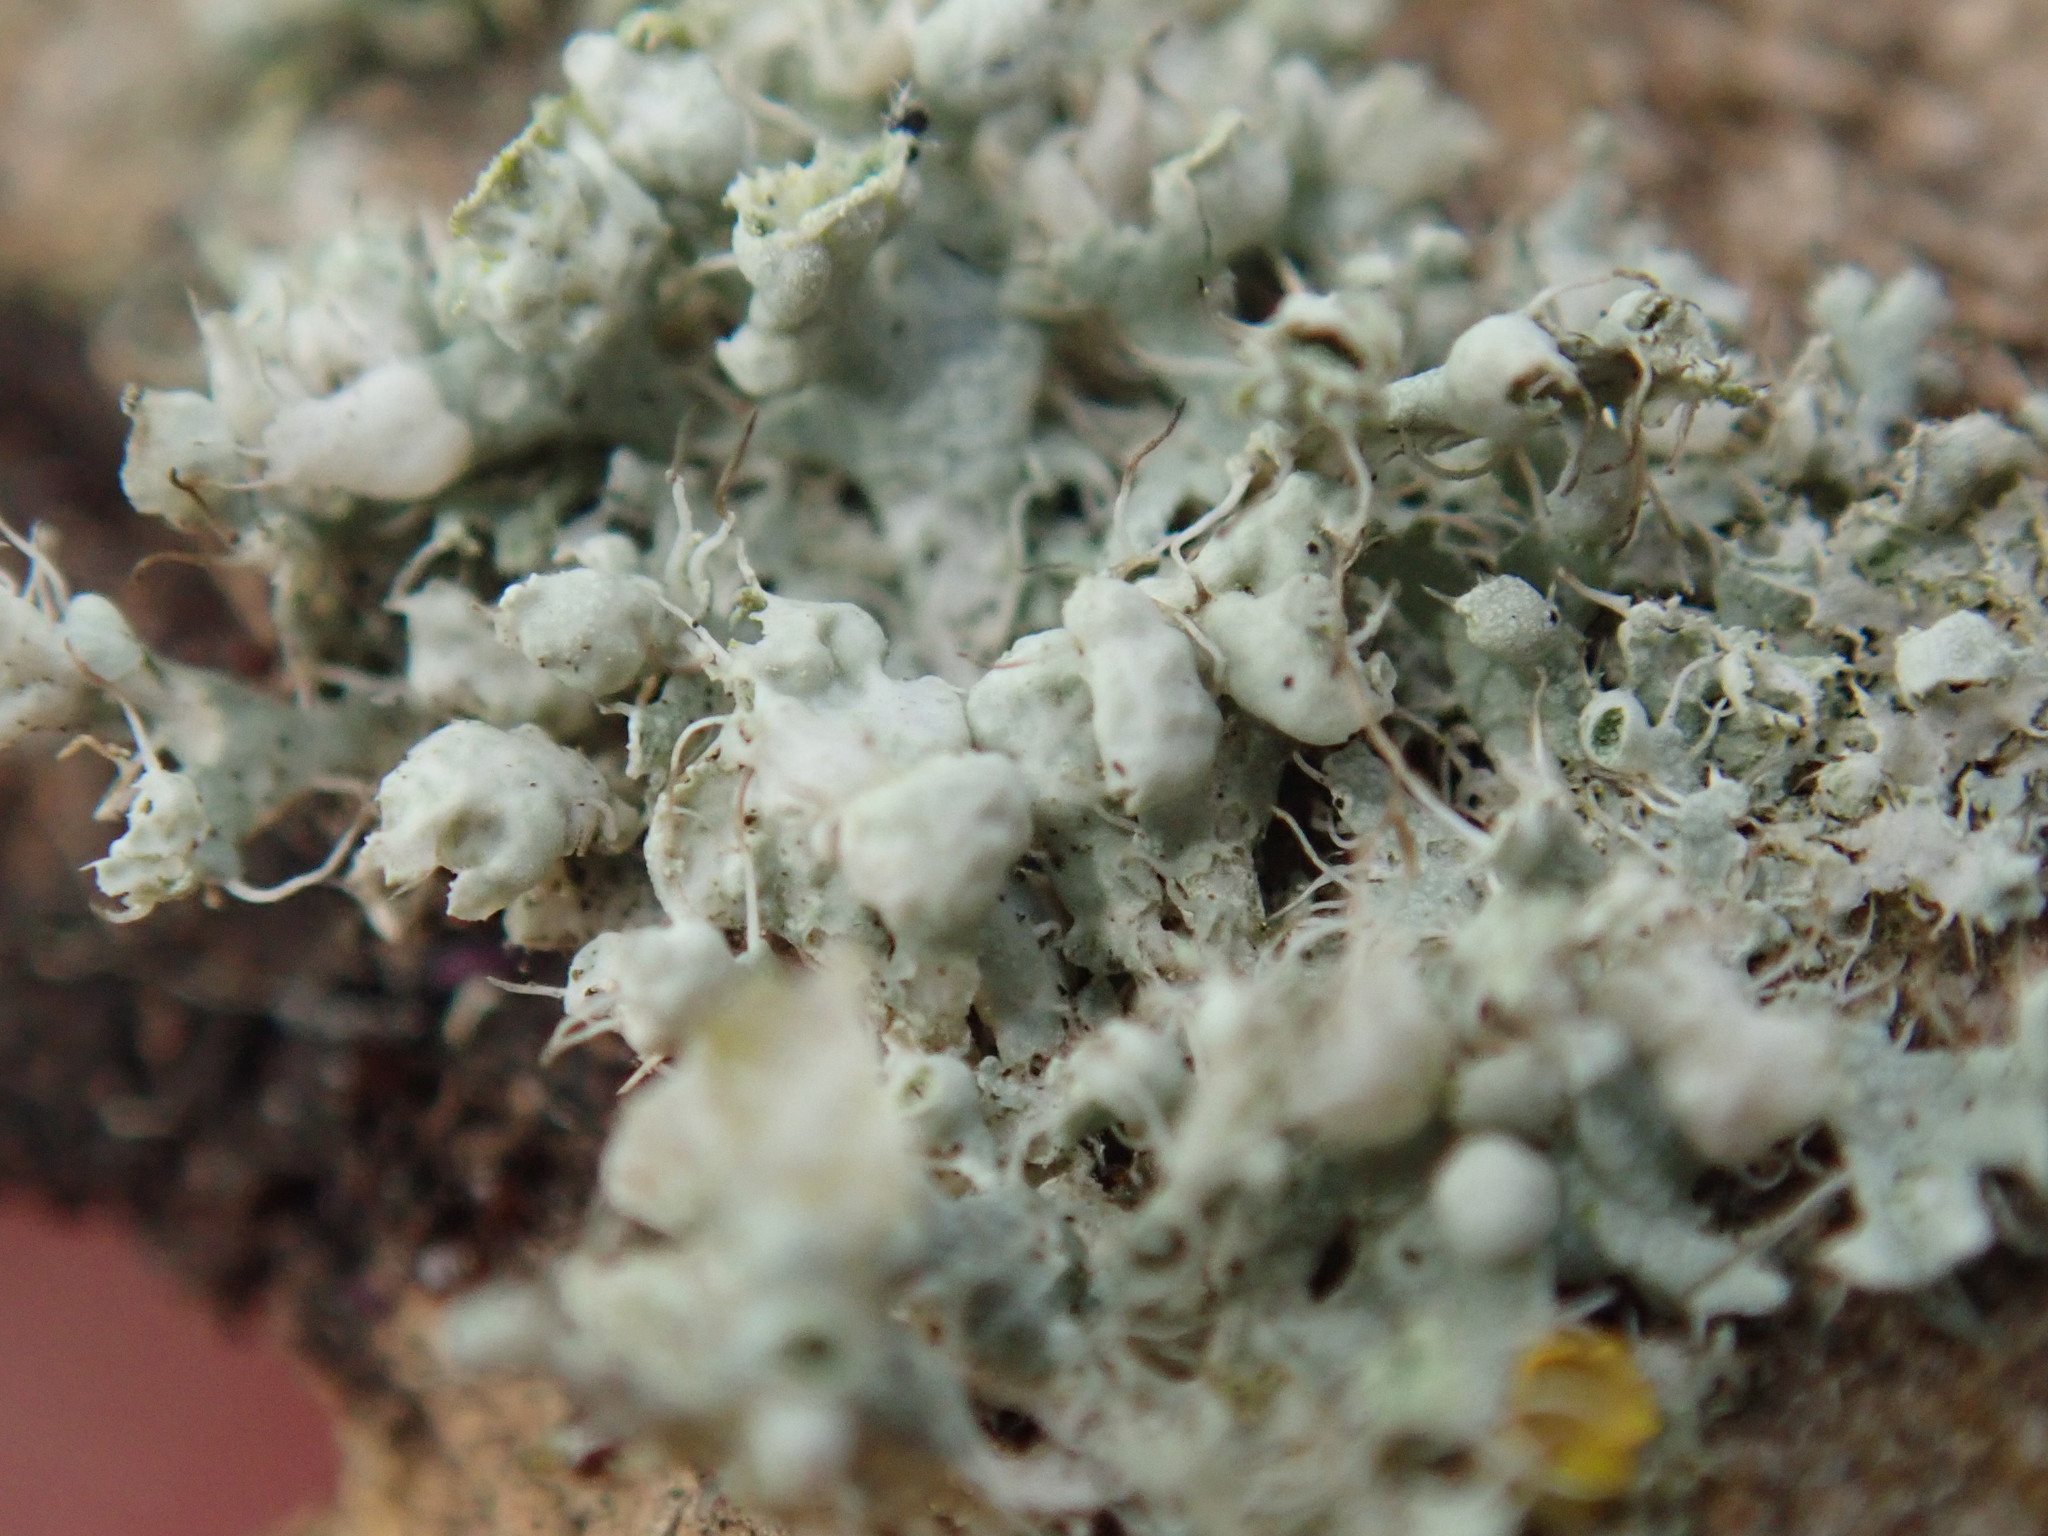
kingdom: Fungi
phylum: Ascomycota
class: Lecanoromycetes
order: Caliciales
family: Physciaceae
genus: Physcia
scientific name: Physcia adscendens
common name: Hooded rosette lichen
